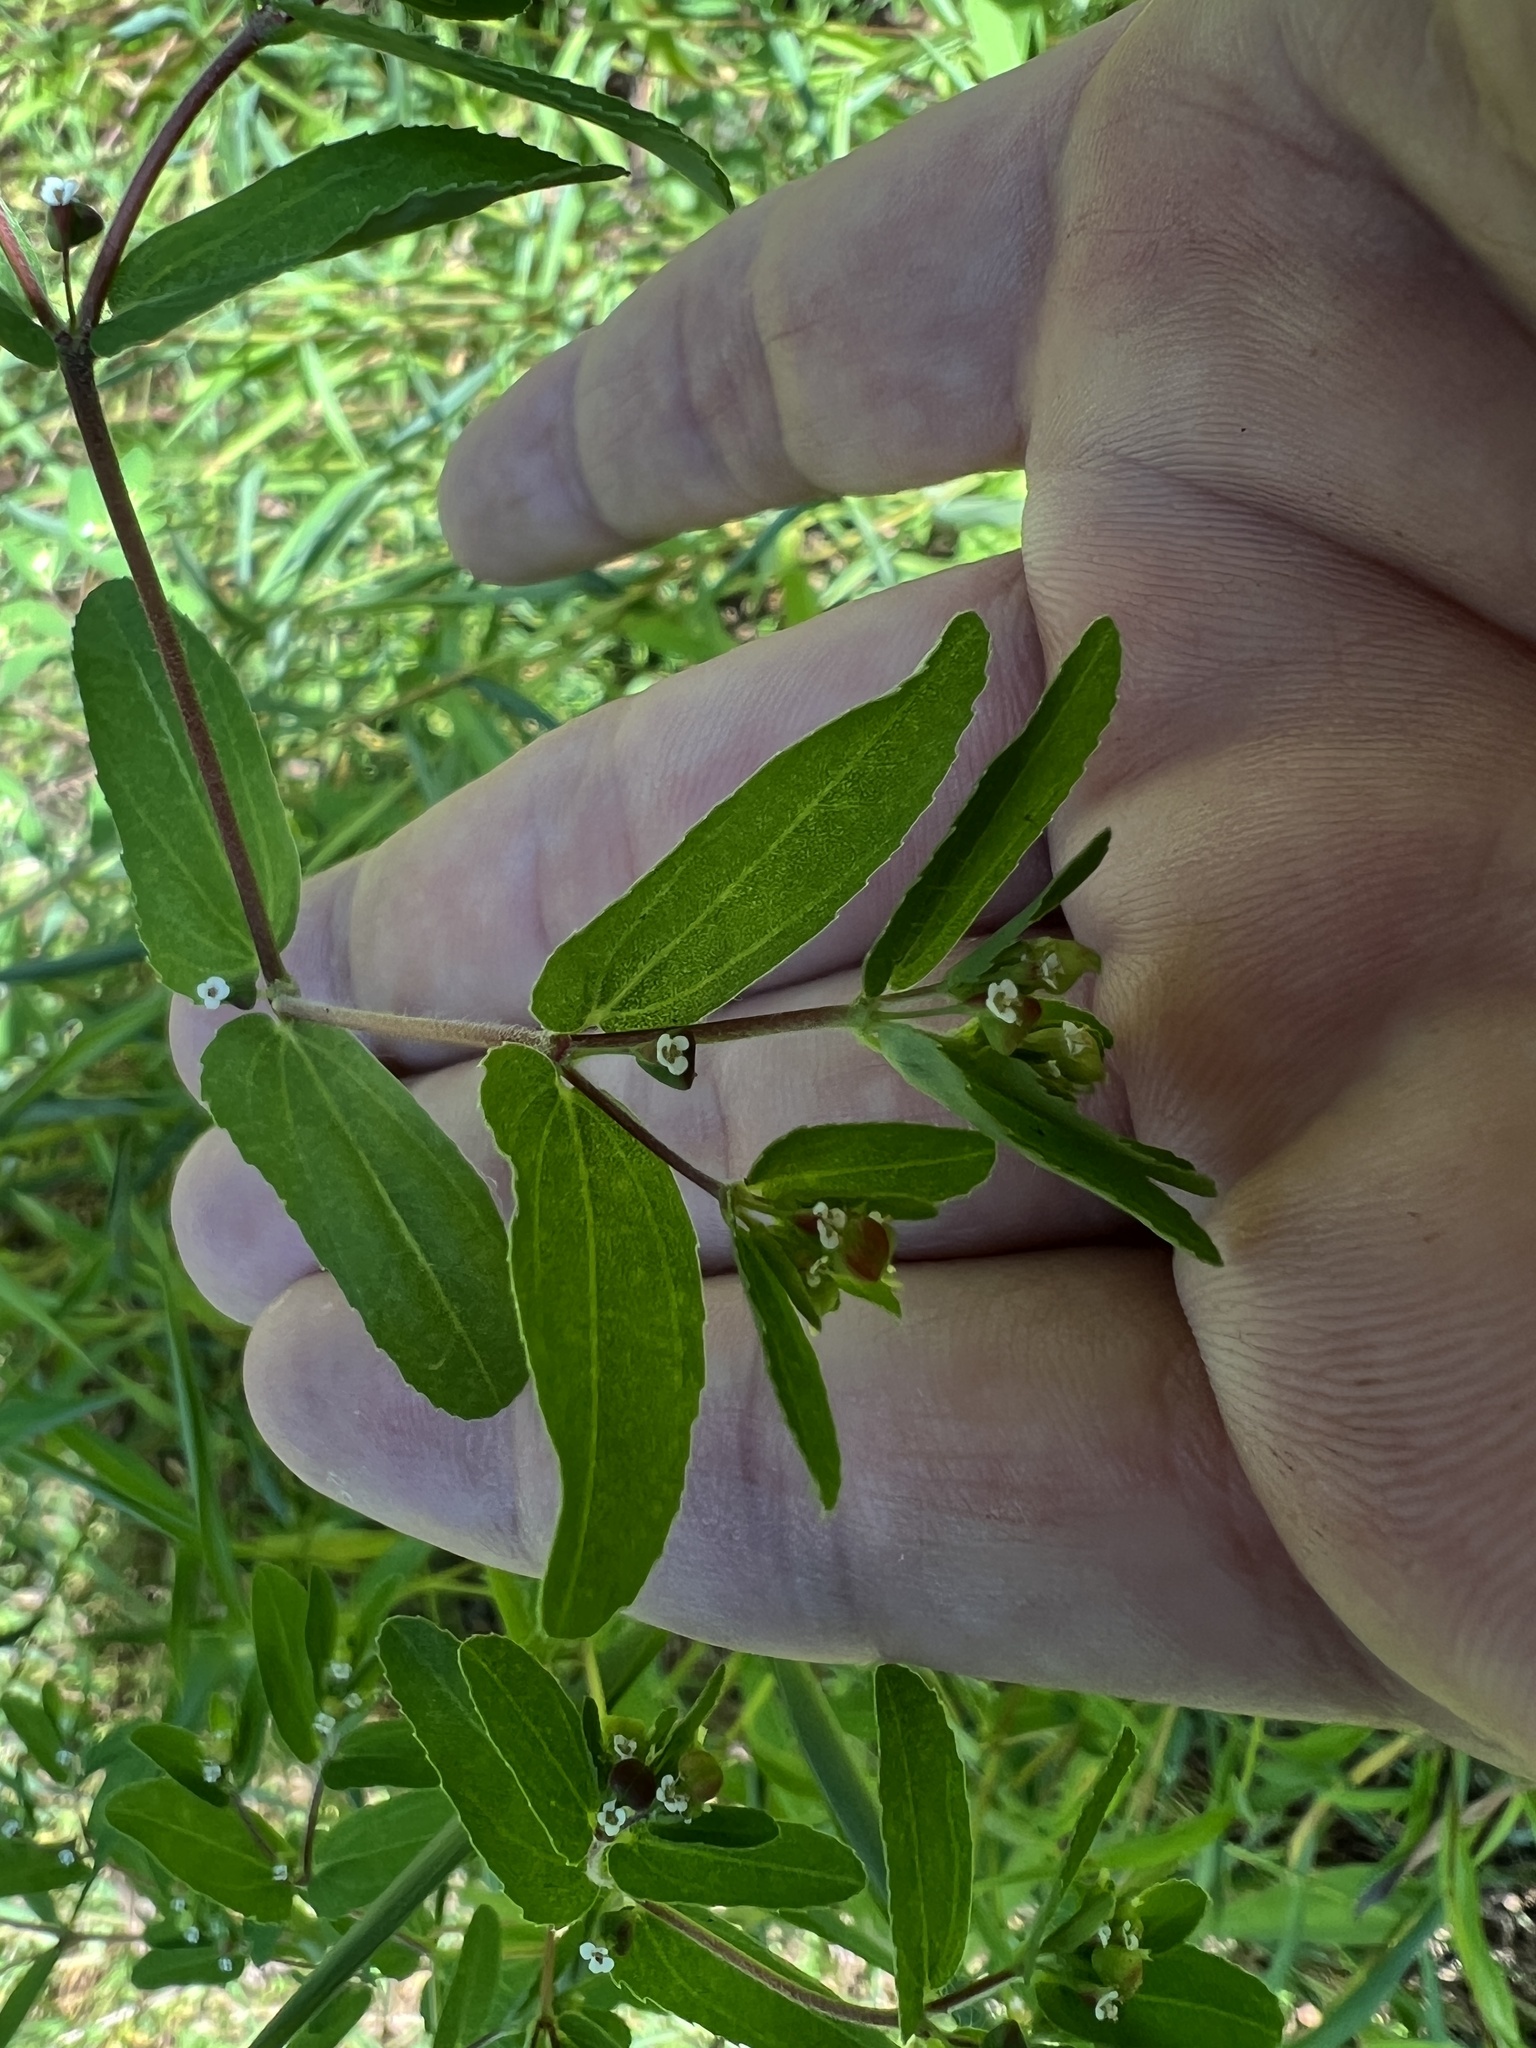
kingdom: Plantae
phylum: Tracheophyta
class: Magnoliopsida
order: Malpighiales
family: Euphorbiaceae
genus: Euphorbia
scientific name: Euphorbia nutans
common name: Eyebane
